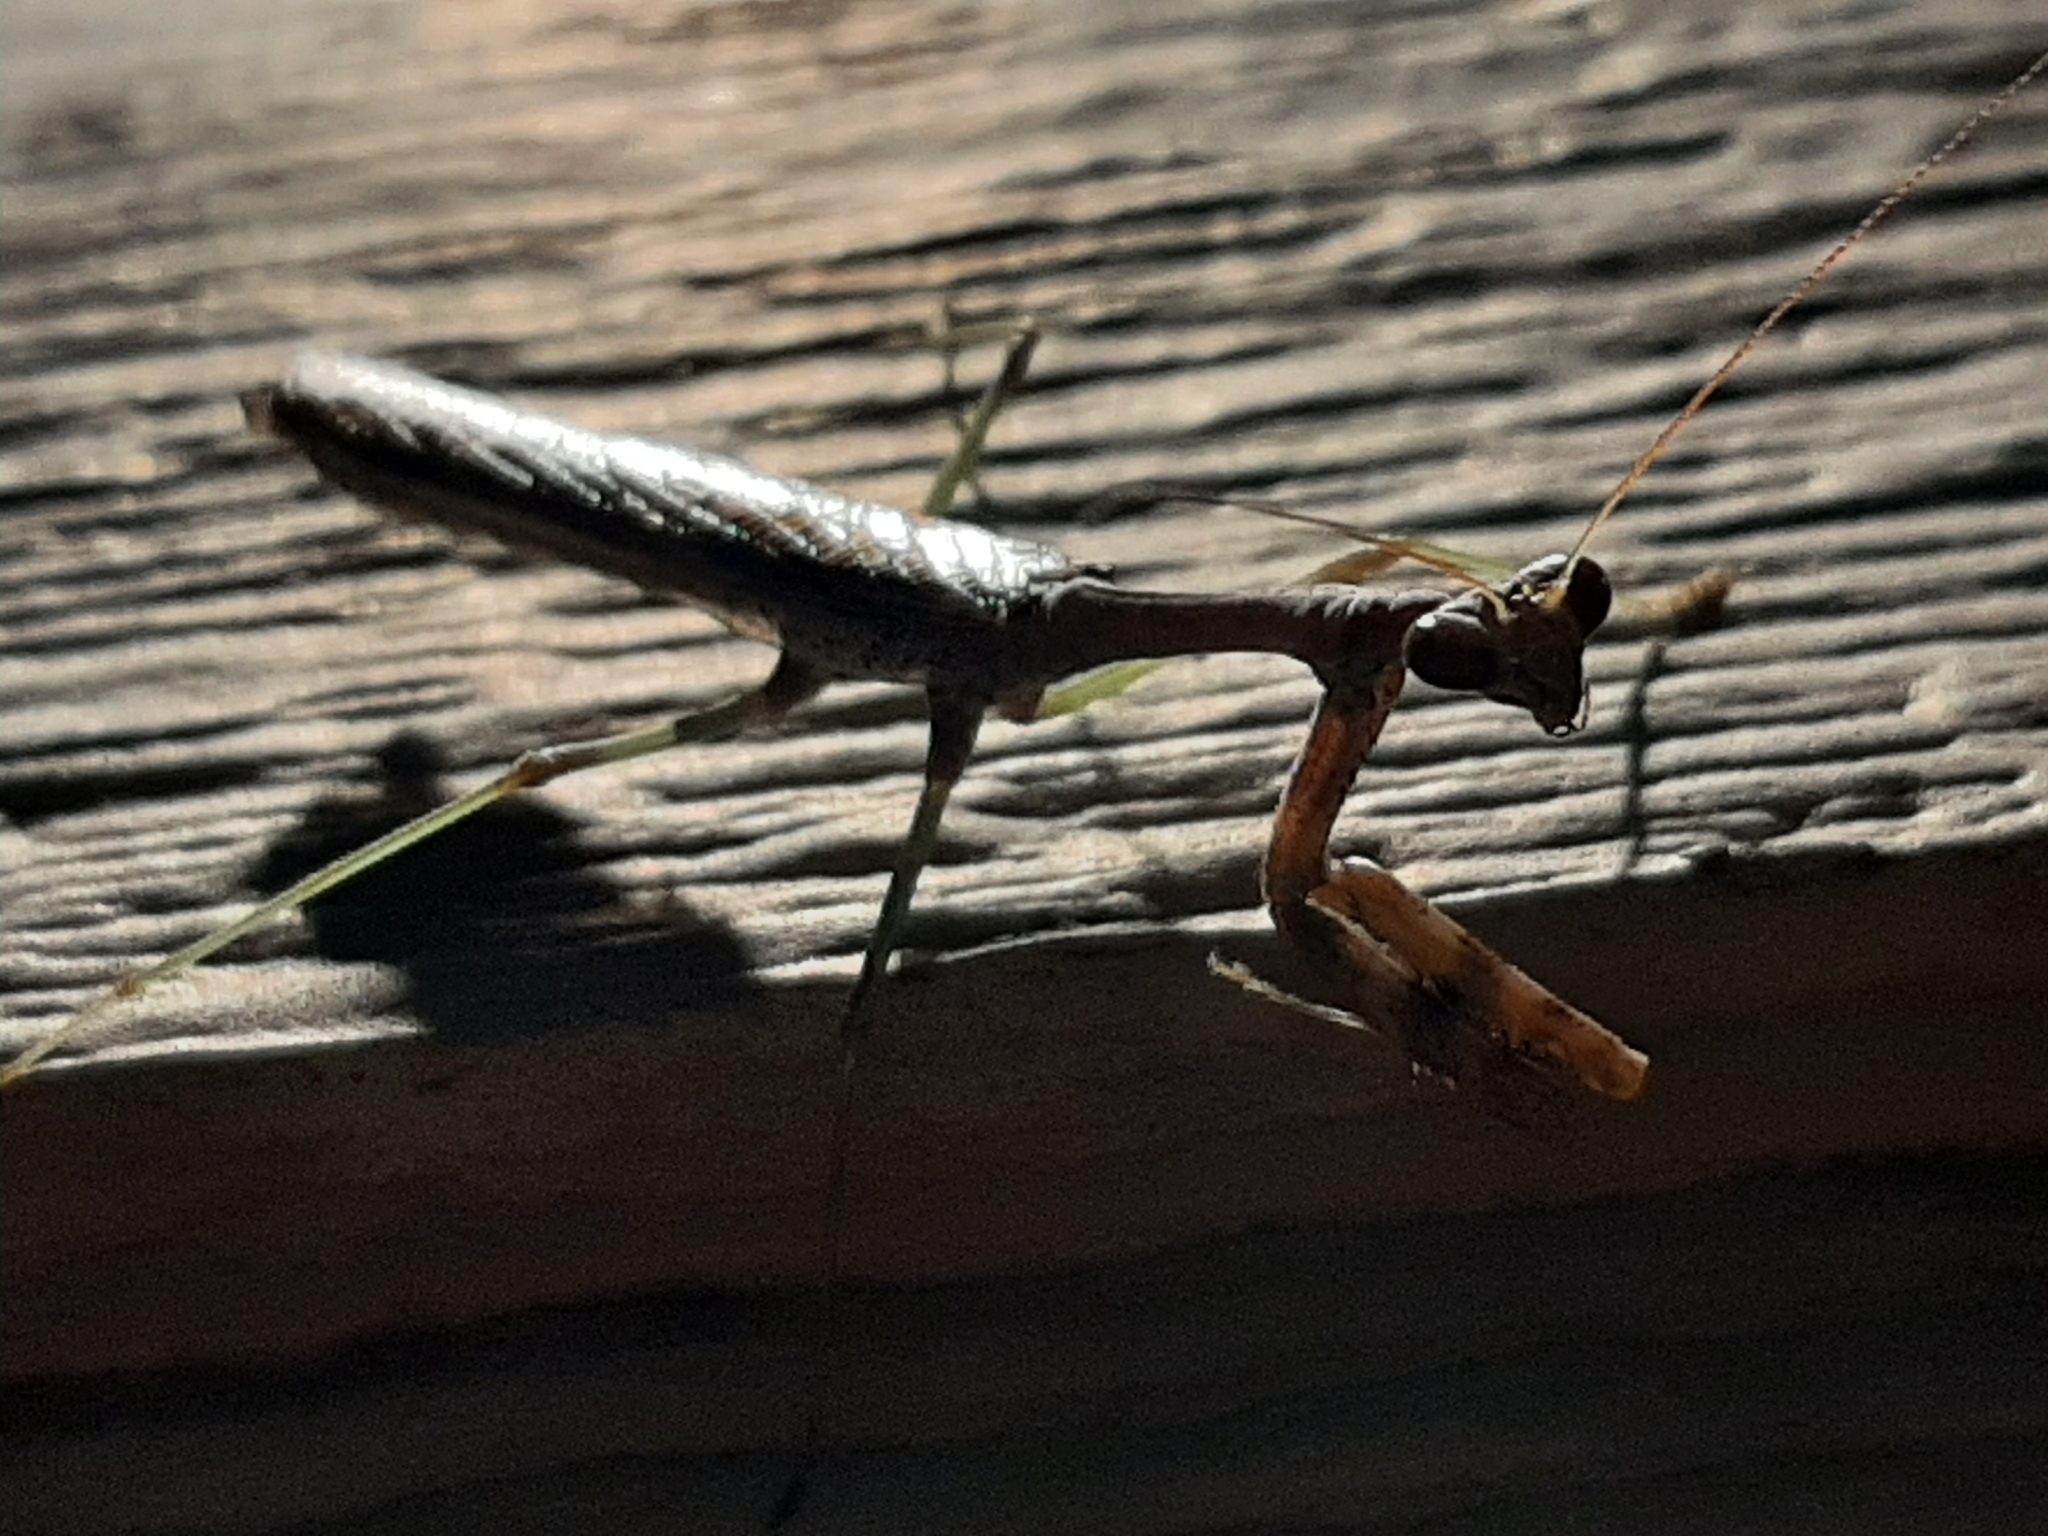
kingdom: Animalia
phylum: Arthropoda
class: Insecta
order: Mantodea
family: Mantidae
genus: Stagmomantis
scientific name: Stagmomantis carolina
